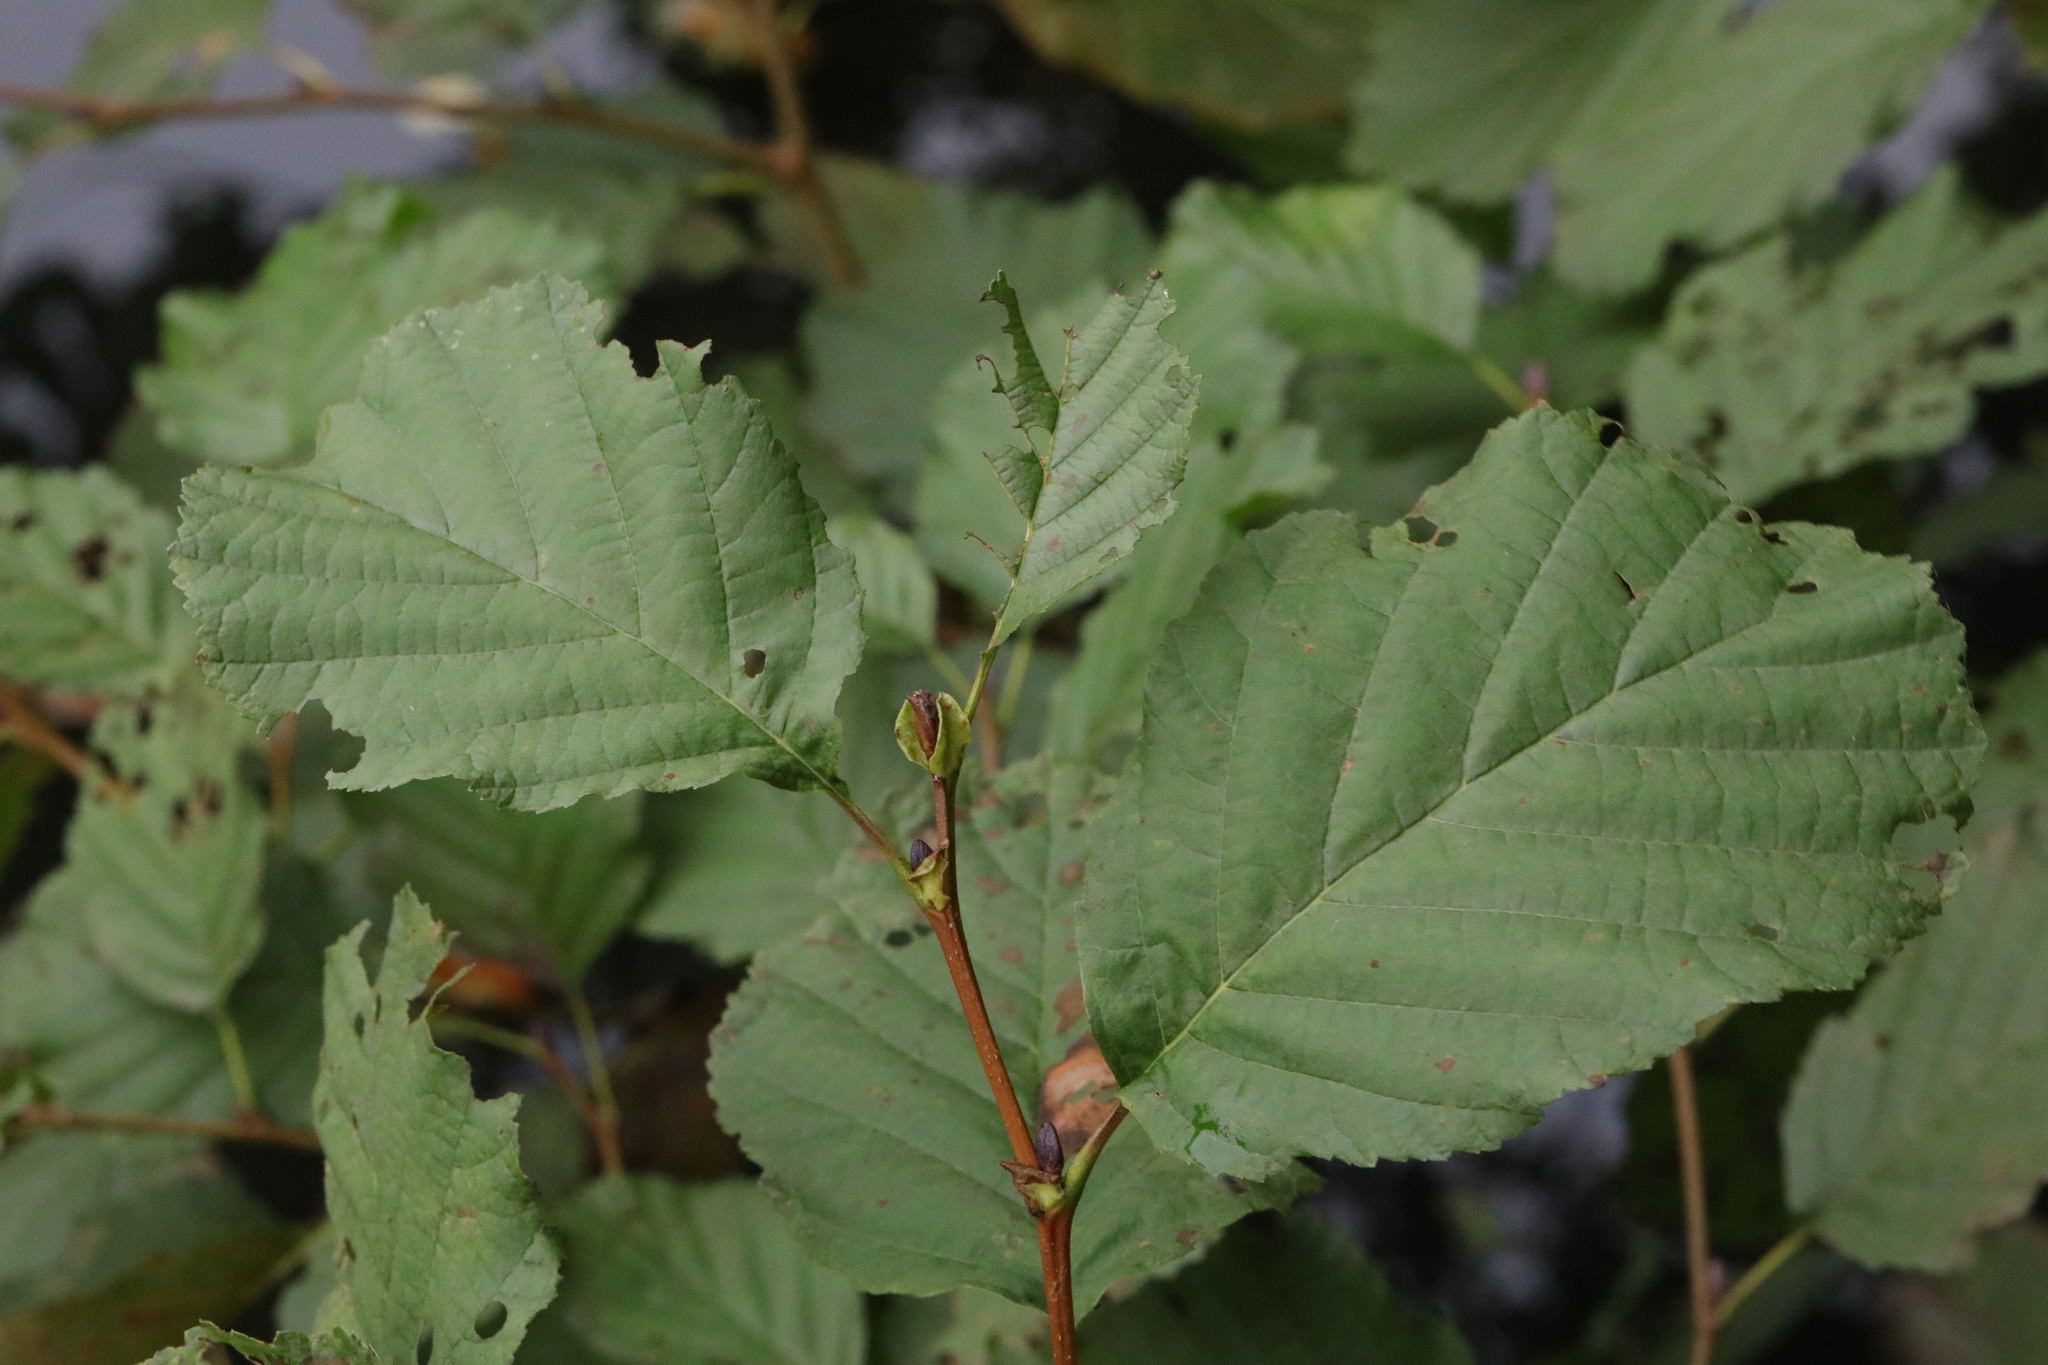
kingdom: Plantae
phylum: Tracheophyta
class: Magnoliopsida
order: Fagales
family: Betulaceae
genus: Alnus
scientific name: Alnus glutinosa
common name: Black alder
